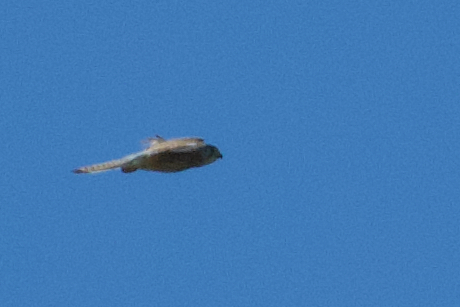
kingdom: Animalia
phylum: Chordata
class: Aves
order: Falconiformes
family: Falconidae
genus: Falco
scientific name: Falco tinnunculus
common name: Common kestrel
